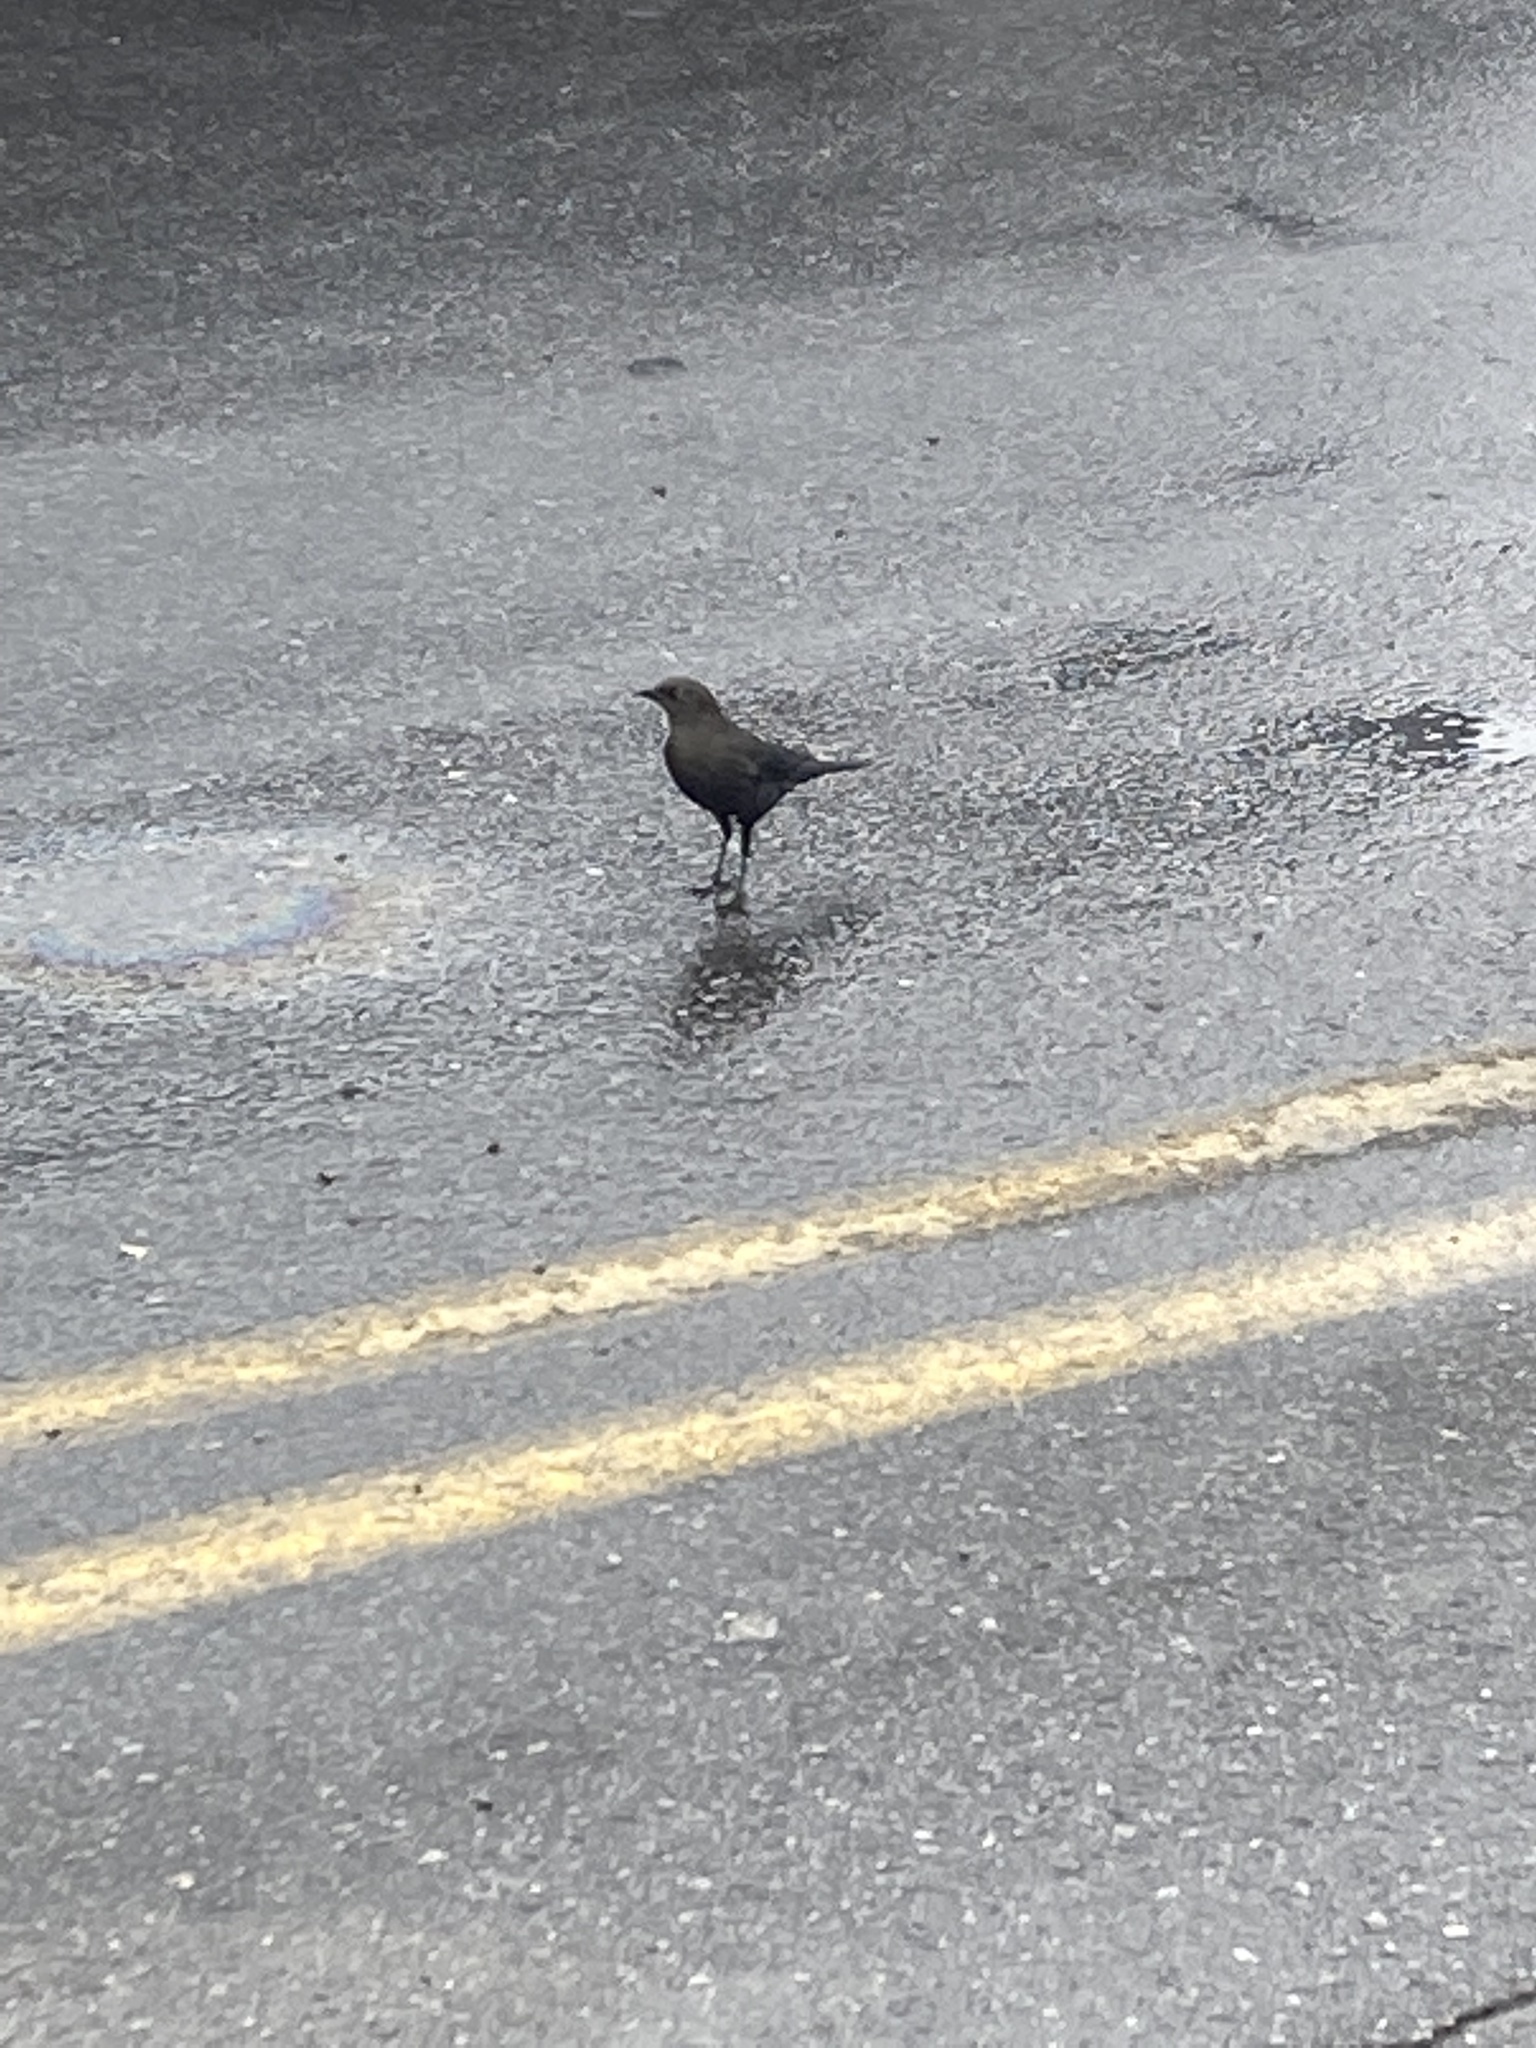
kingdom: Animalia
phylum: Chordata
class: Aves
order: Passeriformes
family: Icteridae
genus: Euphagus
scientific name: Euphagus cyanocephalus
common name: Brewer's blackbird
